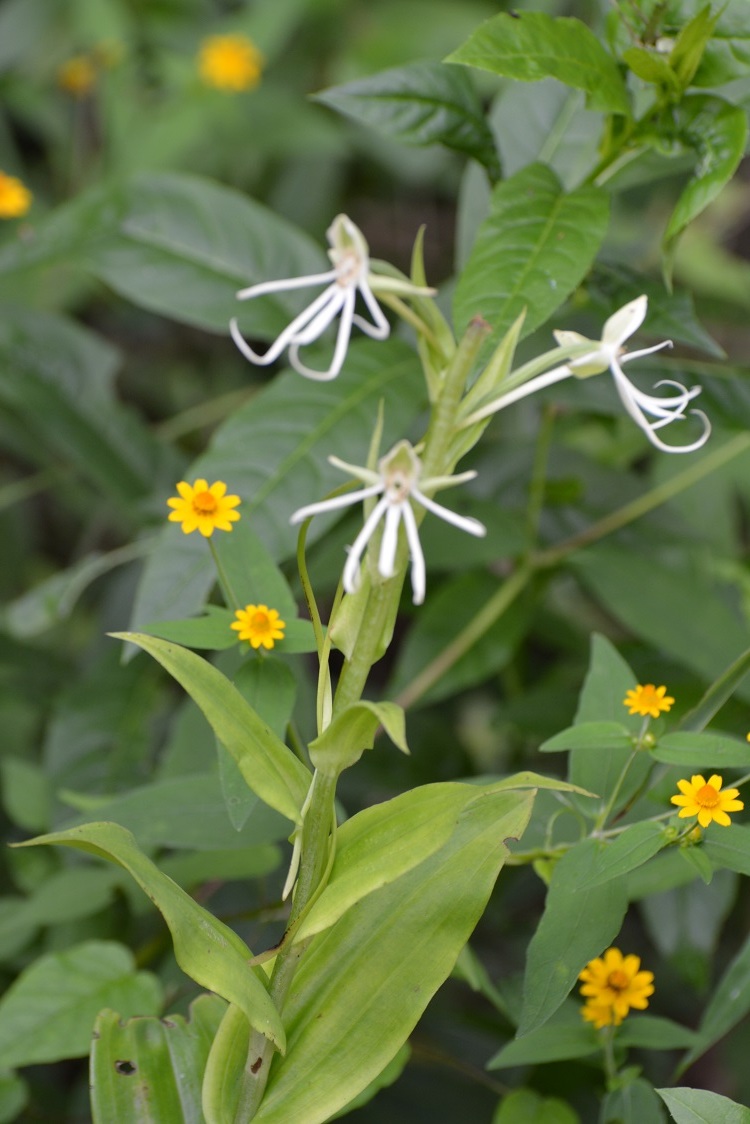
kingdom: Plantae
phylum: Tracheophyta
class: Liliopsida
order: Asparagales
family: Orchidaceae
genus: Habenaria
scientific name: Habenaria macroceratitis
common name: Big-horn bog orchid
